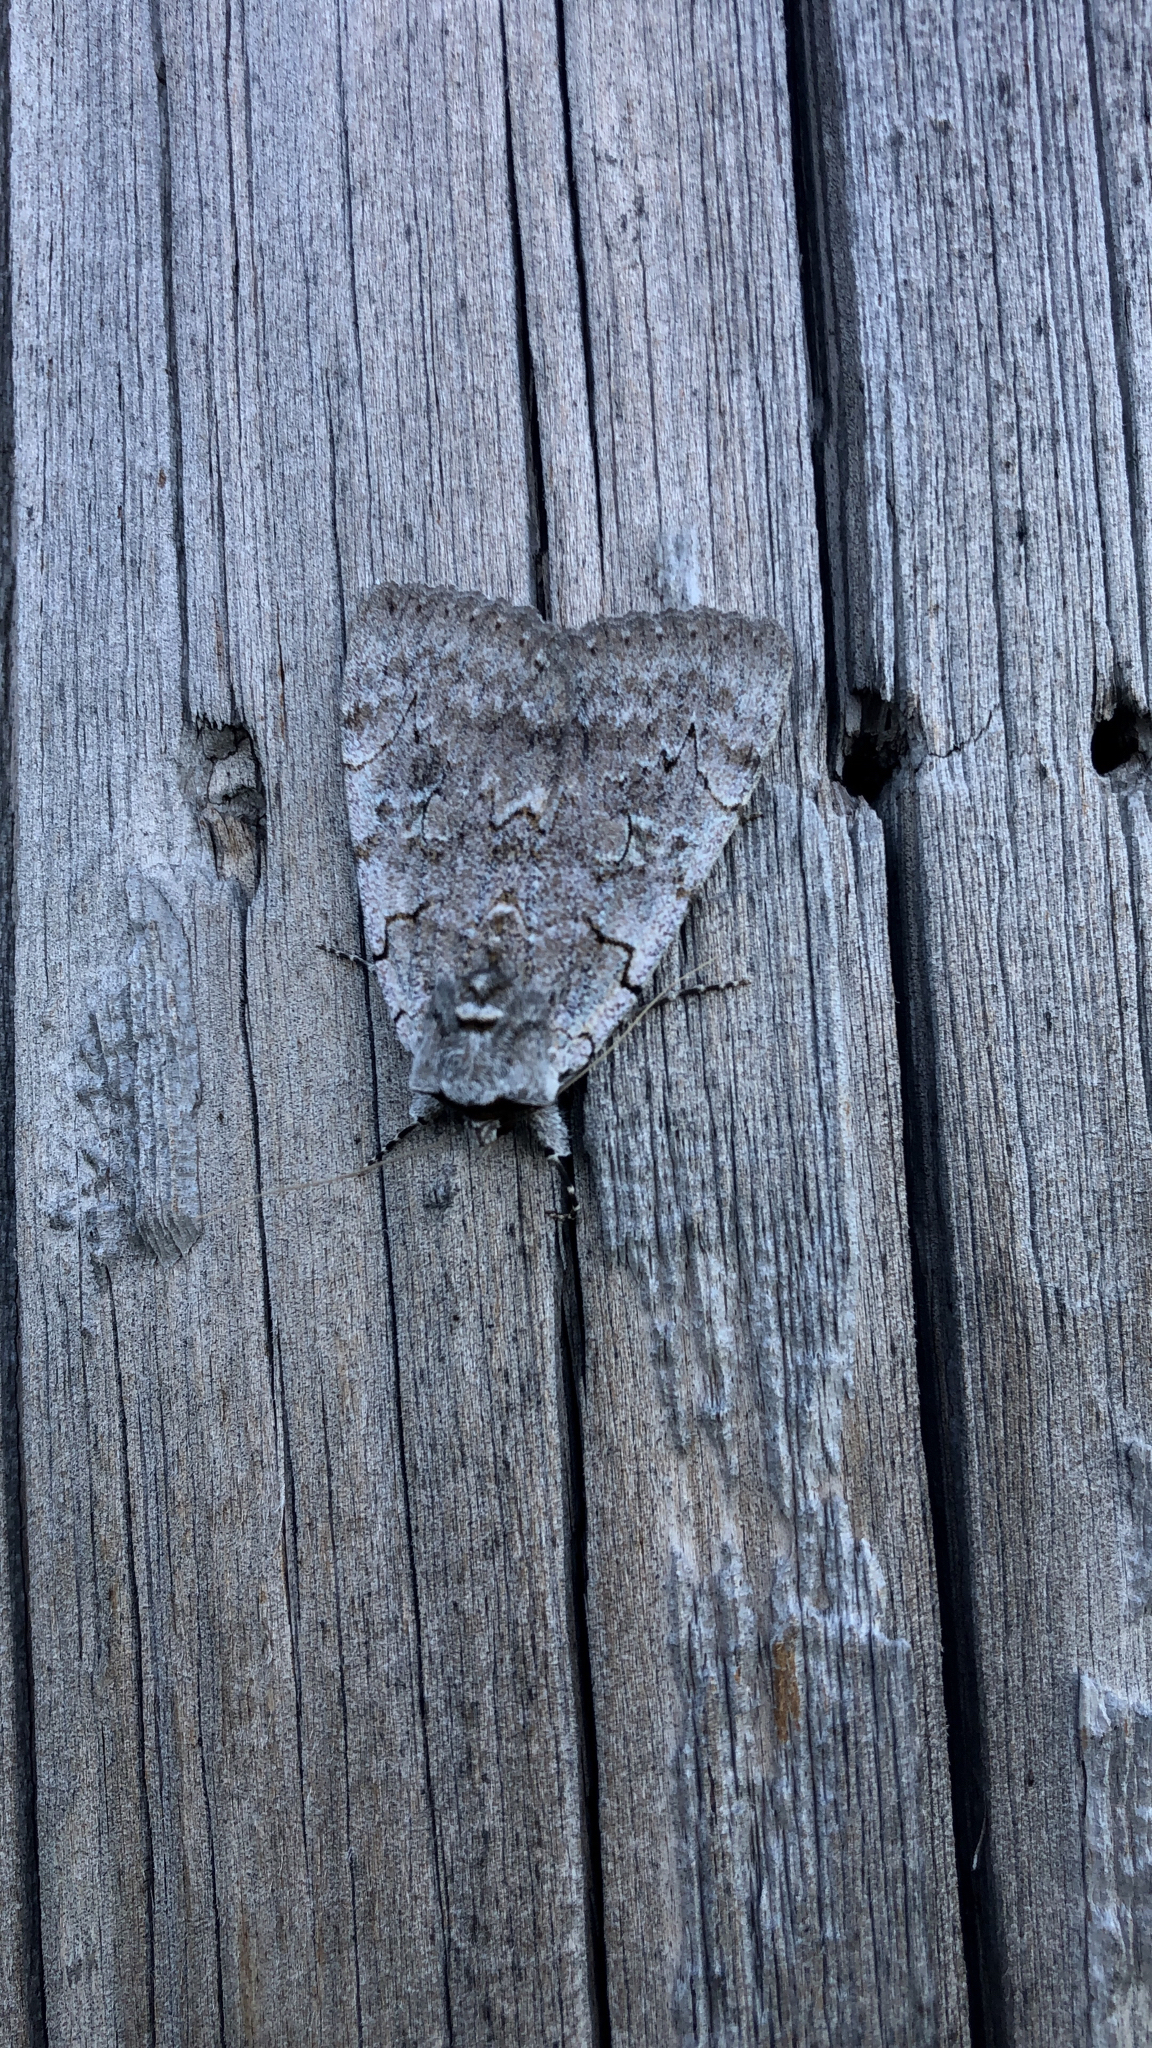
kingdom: Animalia
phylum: Arthropoda
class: Insecta
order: Lepidoptera
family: Erebidae
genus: Catocala
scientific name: Catocala concumbens
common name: Pink underwing
